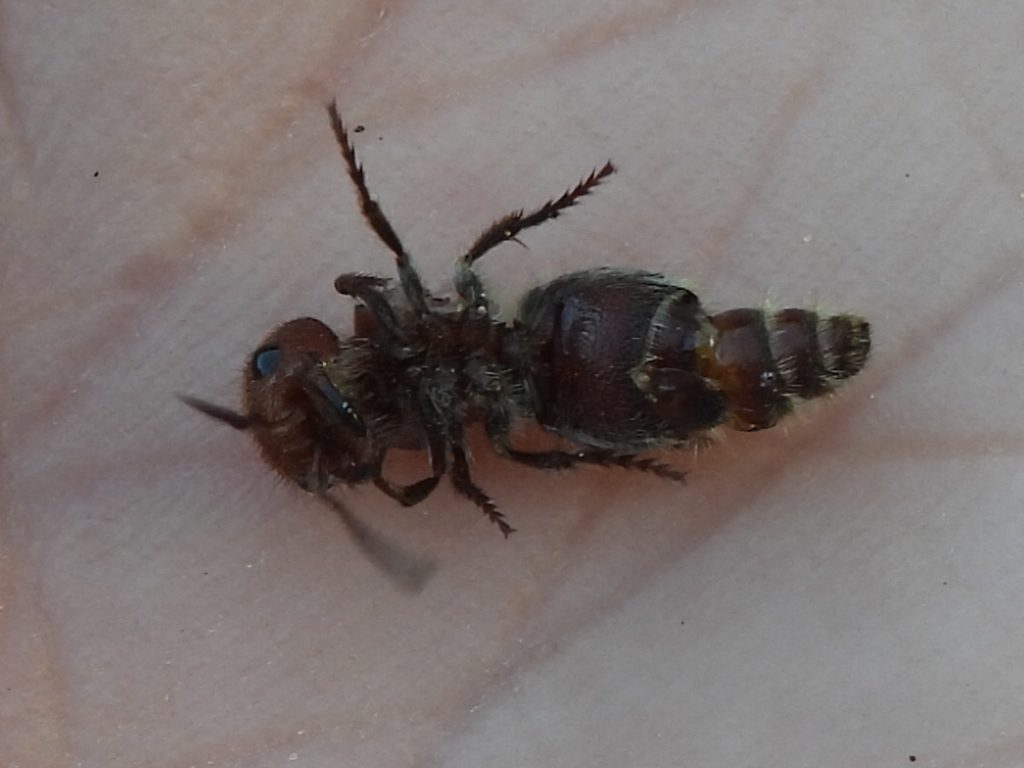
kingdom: Animalia
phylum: Arthropoda
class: Insecta
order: Hymenoptera
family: Mutillidae
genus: Pseudomethoca
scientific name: Pseudomethoca
